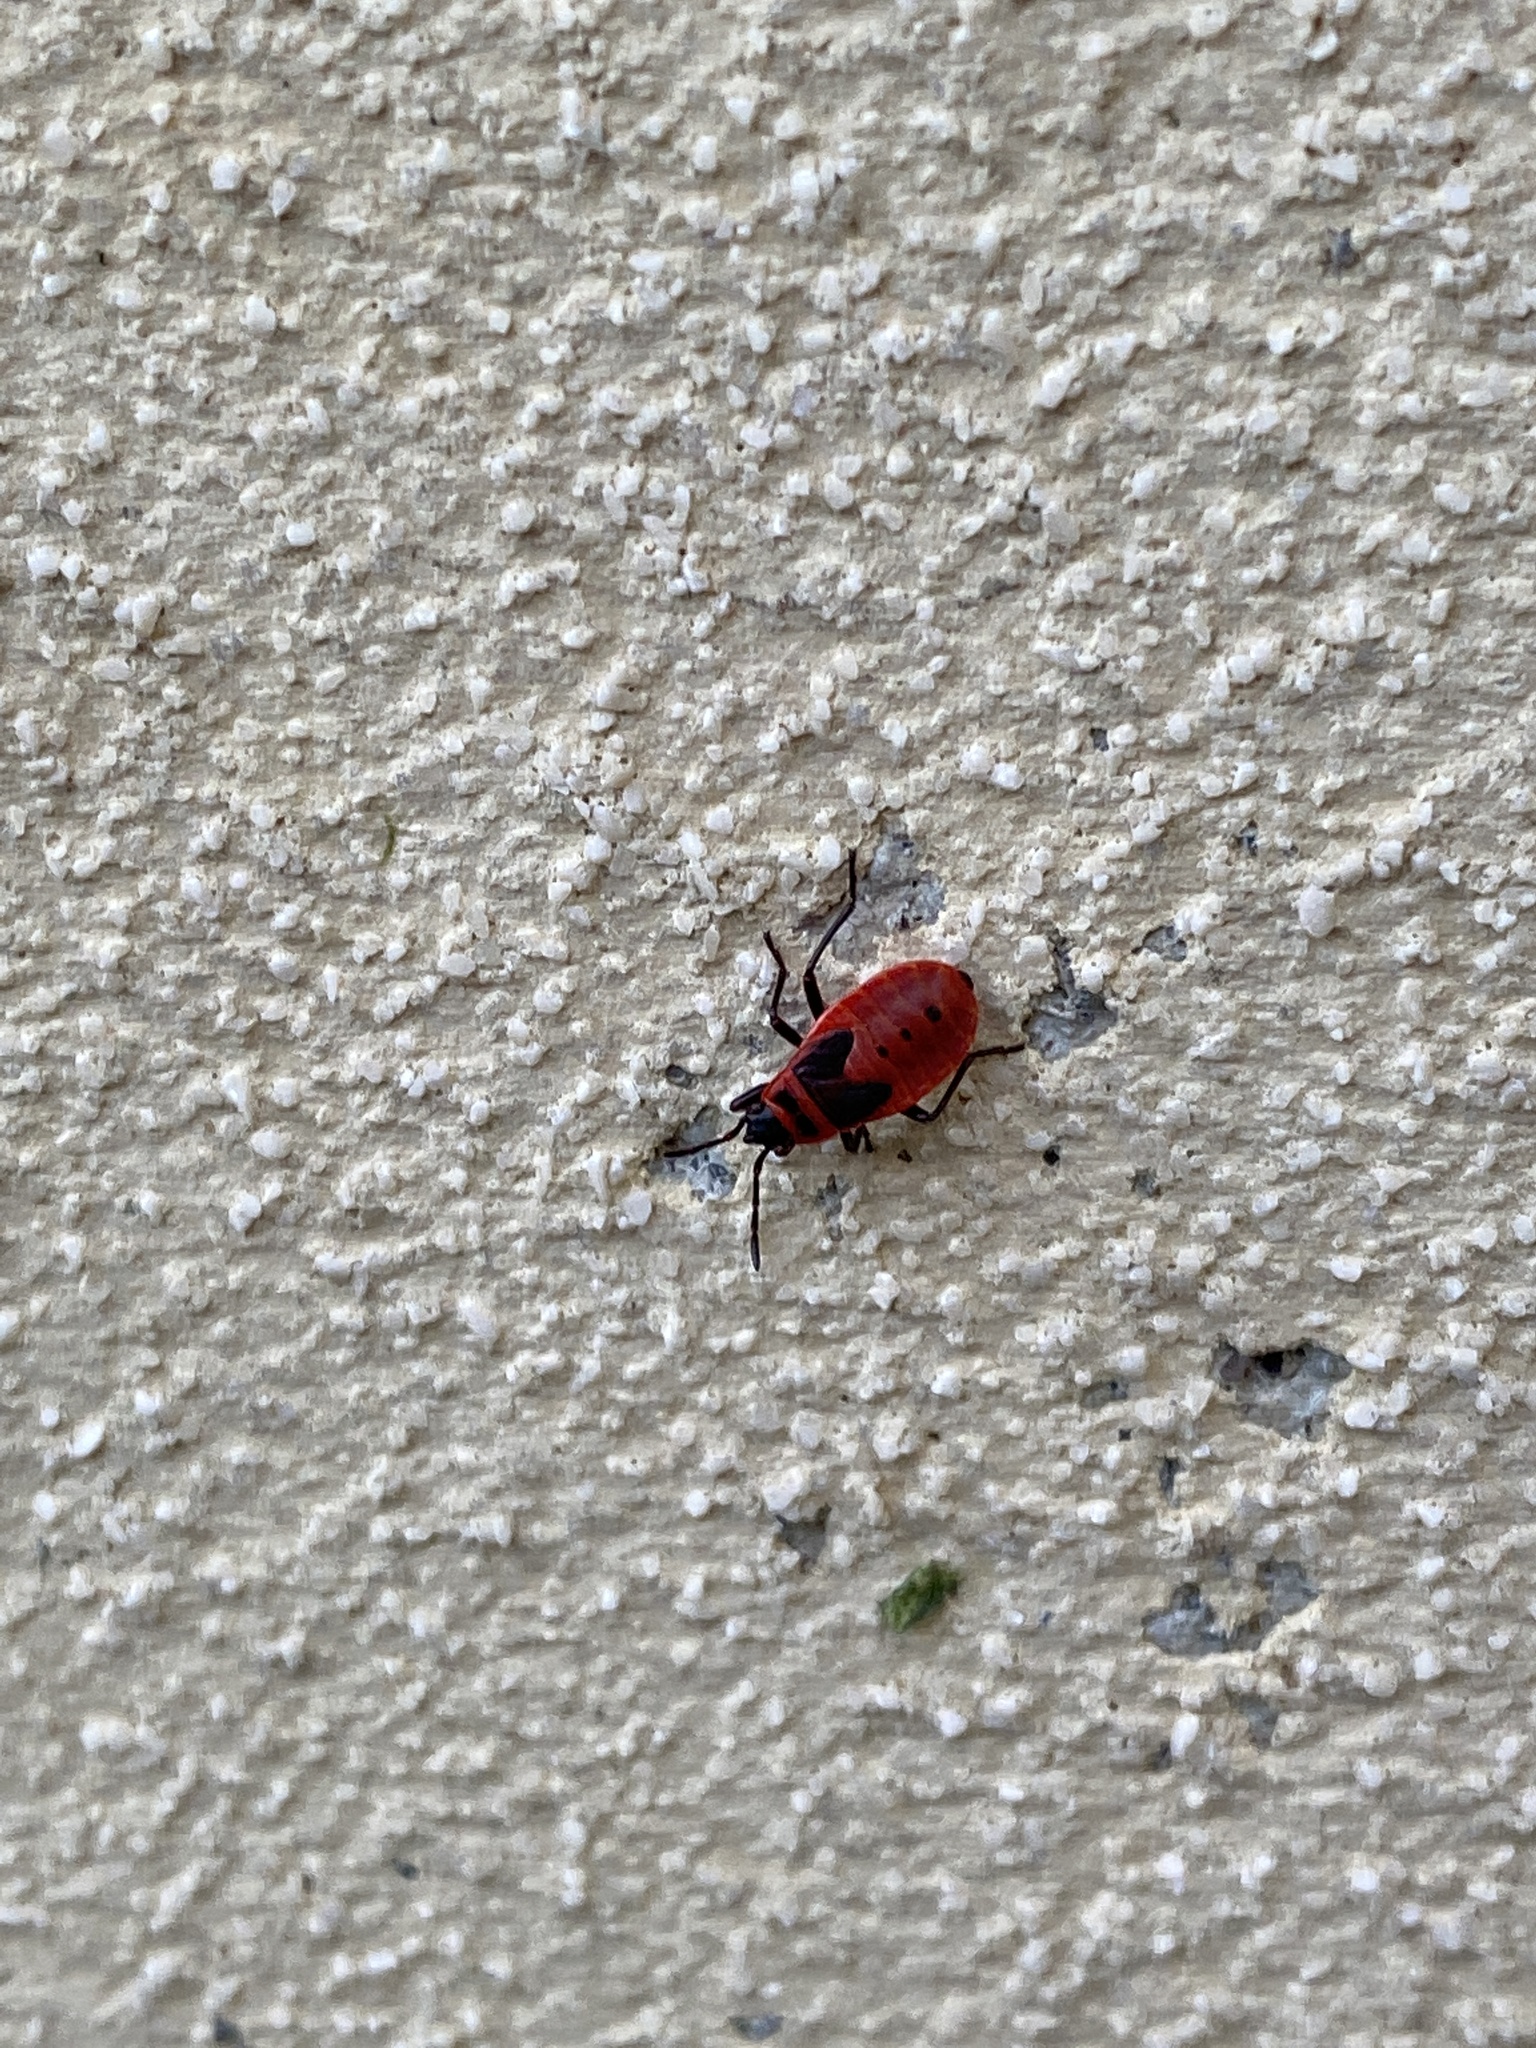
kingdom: Animalia
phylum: Arthropoda
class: Insecta
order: Hemiptera
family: Pyrrhocoridae
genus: Pyrrhocoris
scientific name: Pyrrhocoris apterus
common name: Firebug
